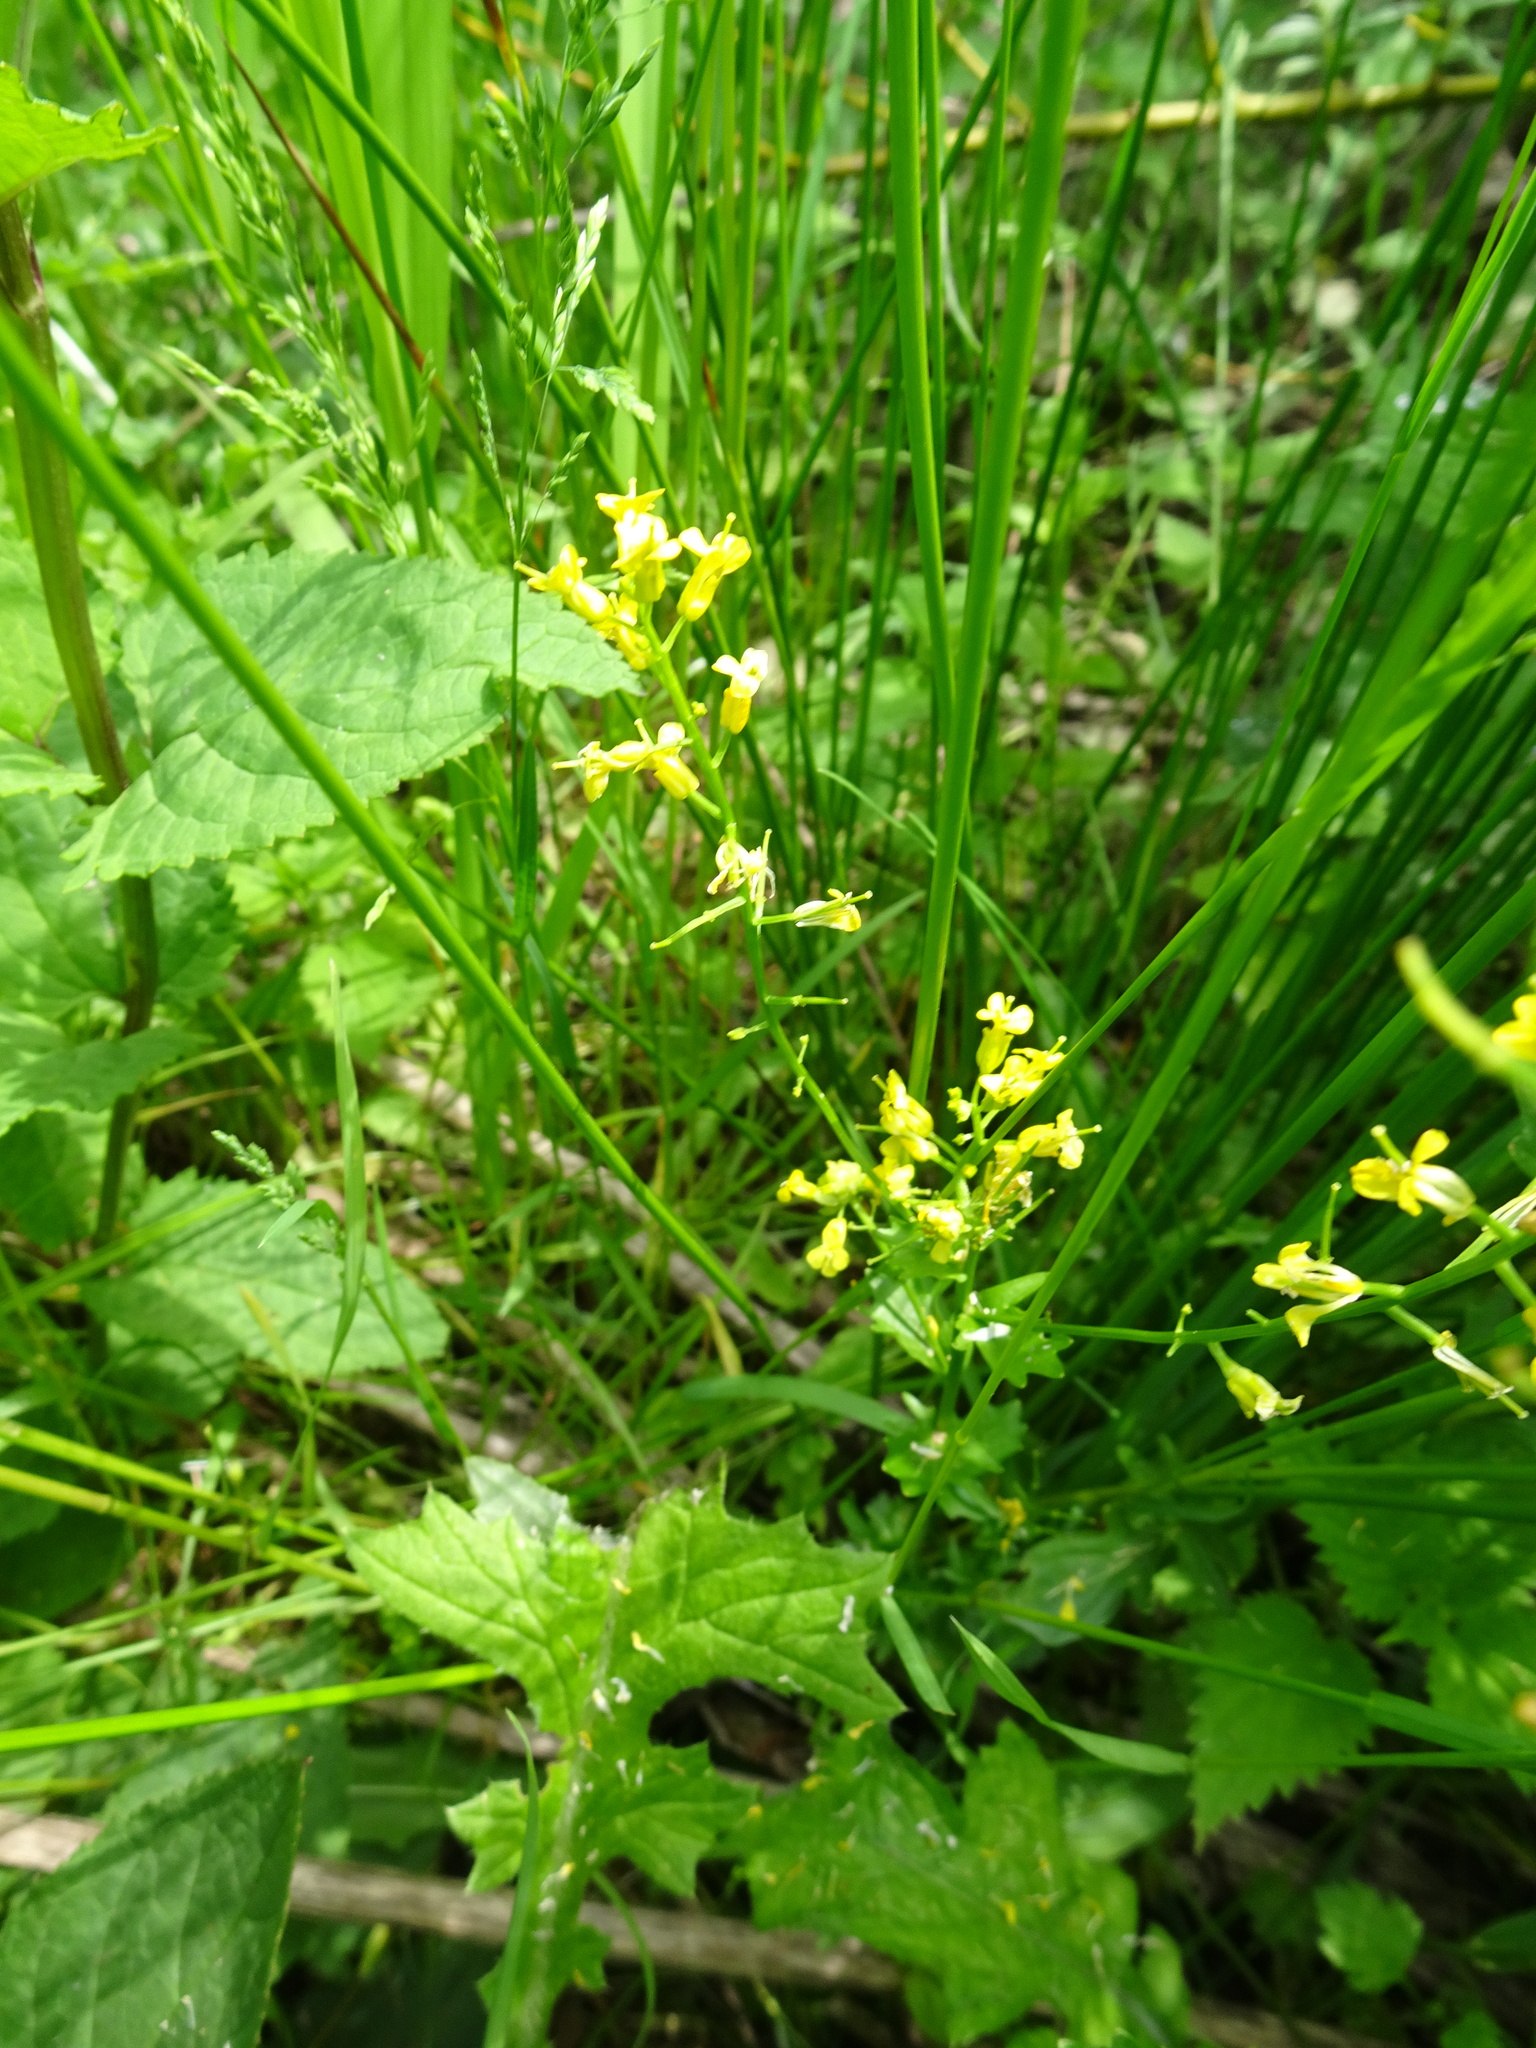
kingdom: Plantae
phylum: Tracheophyta
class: Magnoliopsida
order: Brassicales
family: Brassicaceae
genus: Barbarea
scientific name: Barbarea vulgaris
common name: Cressy-greens
